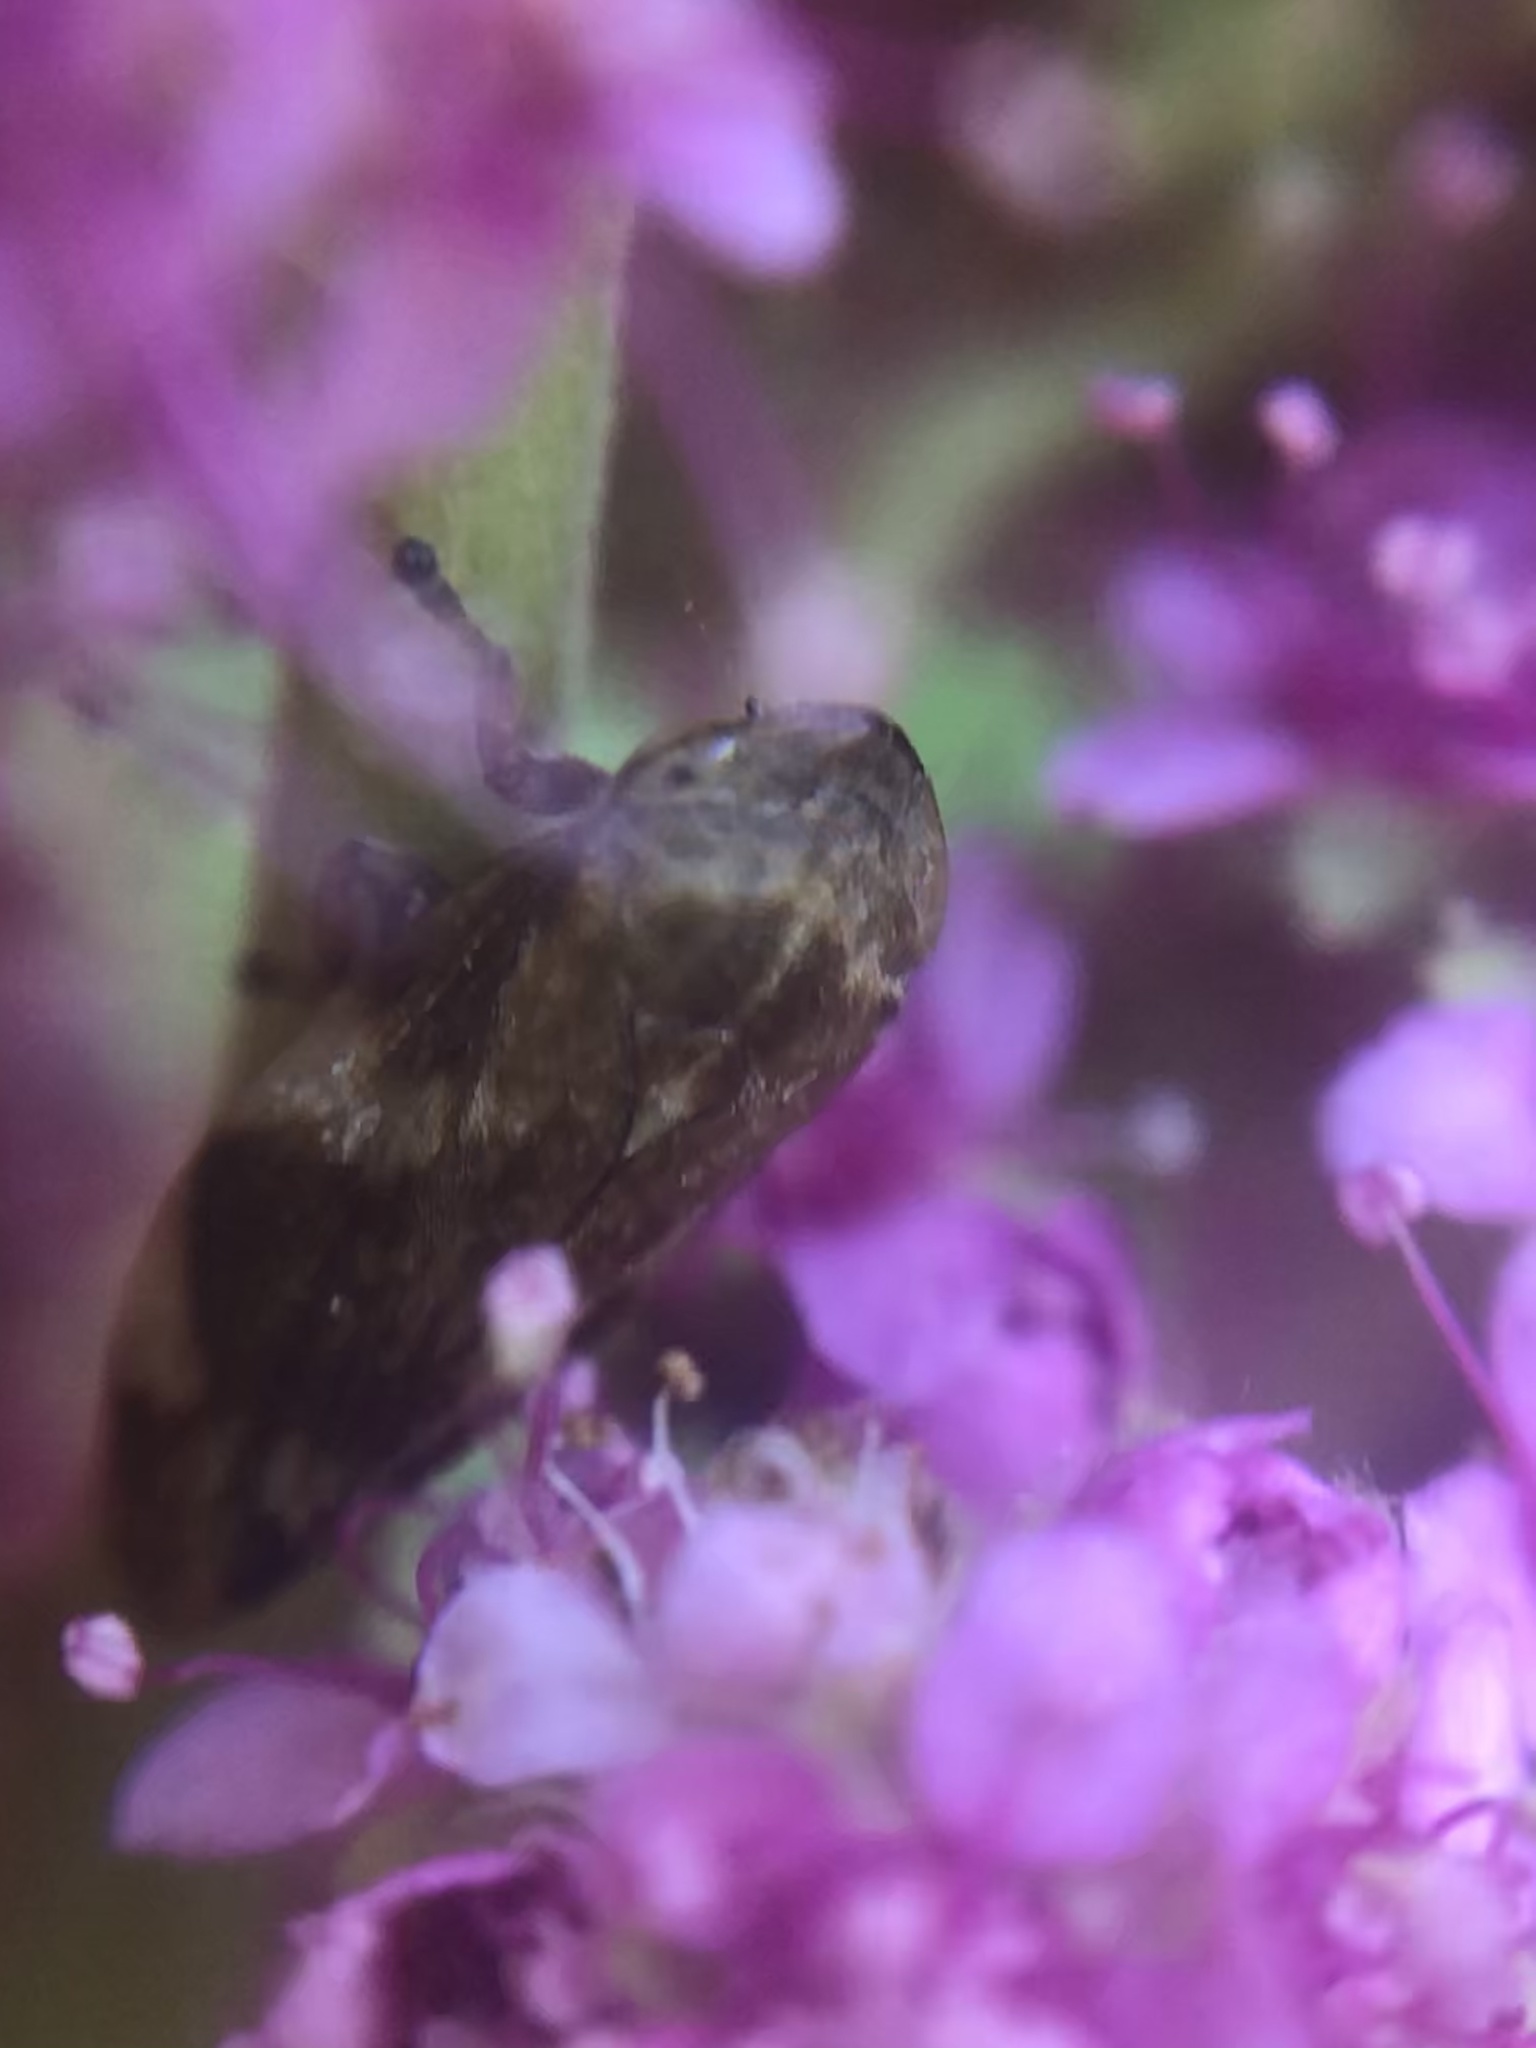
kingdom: Animalia
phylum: Arthropoda
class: Insecta
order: Hemiptera
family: Aphrophoridae
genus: Philaenus
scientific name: Philaenus spumarius
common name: Meadow spittlebug
